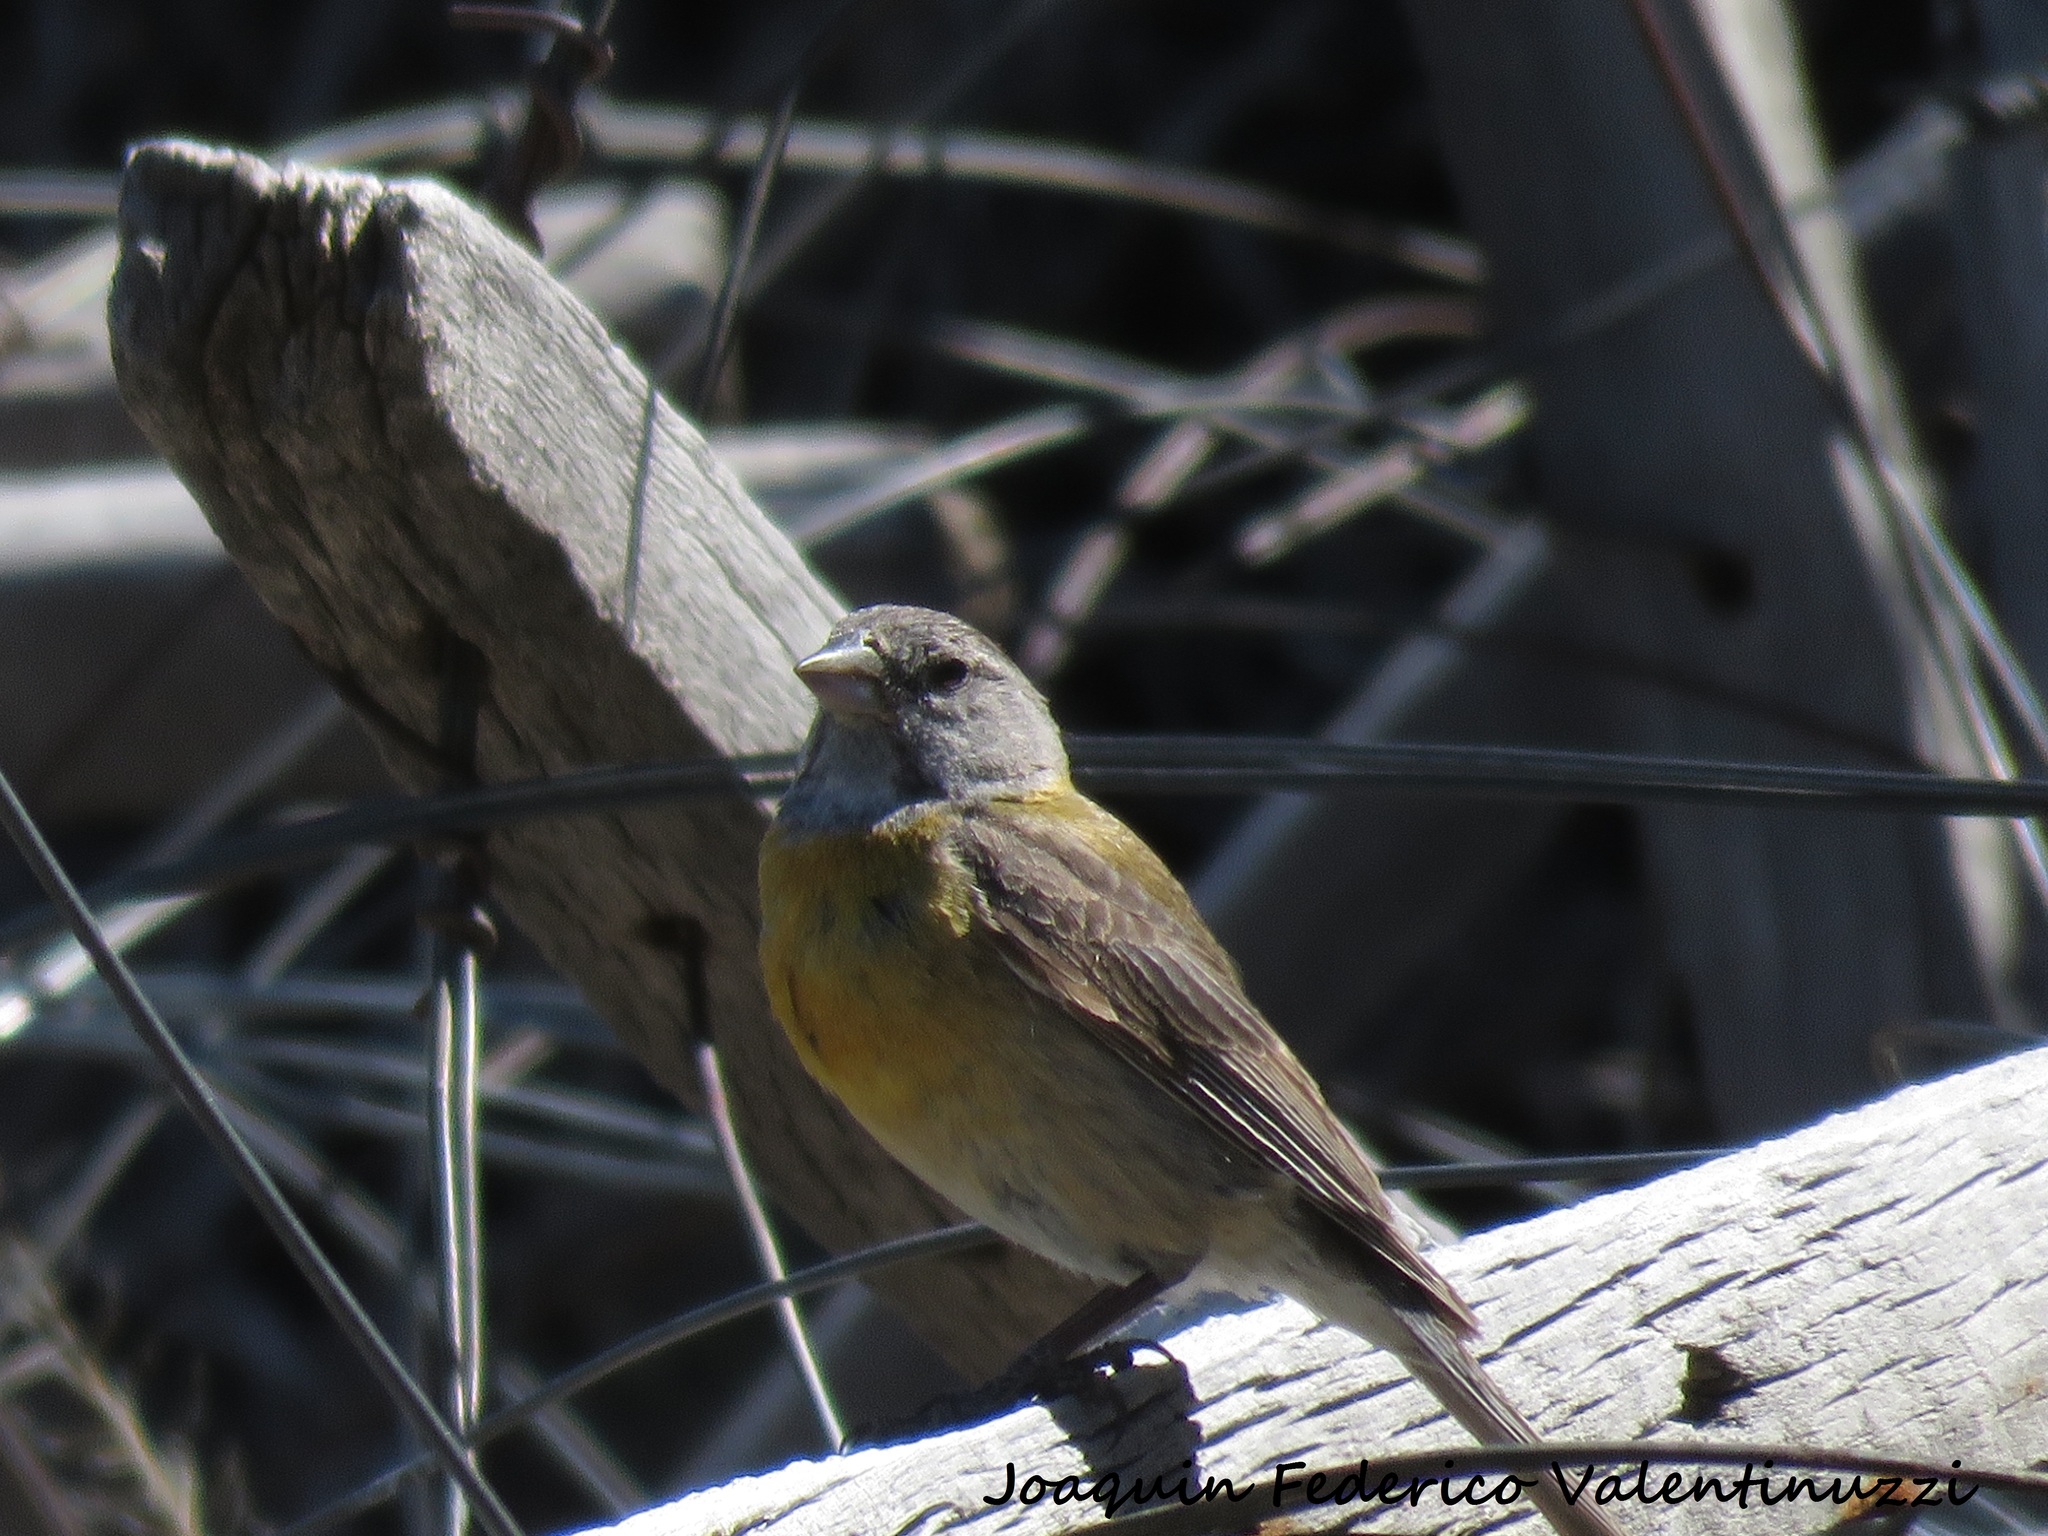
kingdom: Animalia
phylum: Chordata
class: Aves
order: Passeriformes
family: Thraupidae
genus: Phrygilus
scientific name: Phrygilus gayi
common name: Grey-hooded sierra finch
